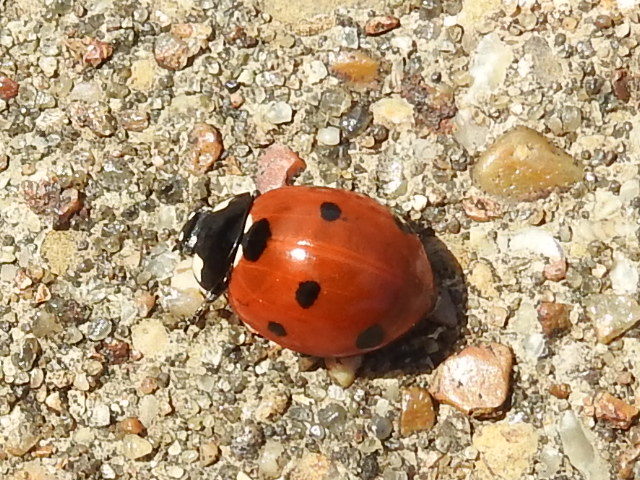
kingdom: Animalia
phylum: Arthropoda
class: Insecta
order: Coleoptera
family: Coccinellidae
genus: Coccinella
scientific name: Coccinella septempunctata
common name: Sevenspotted lady beetle
